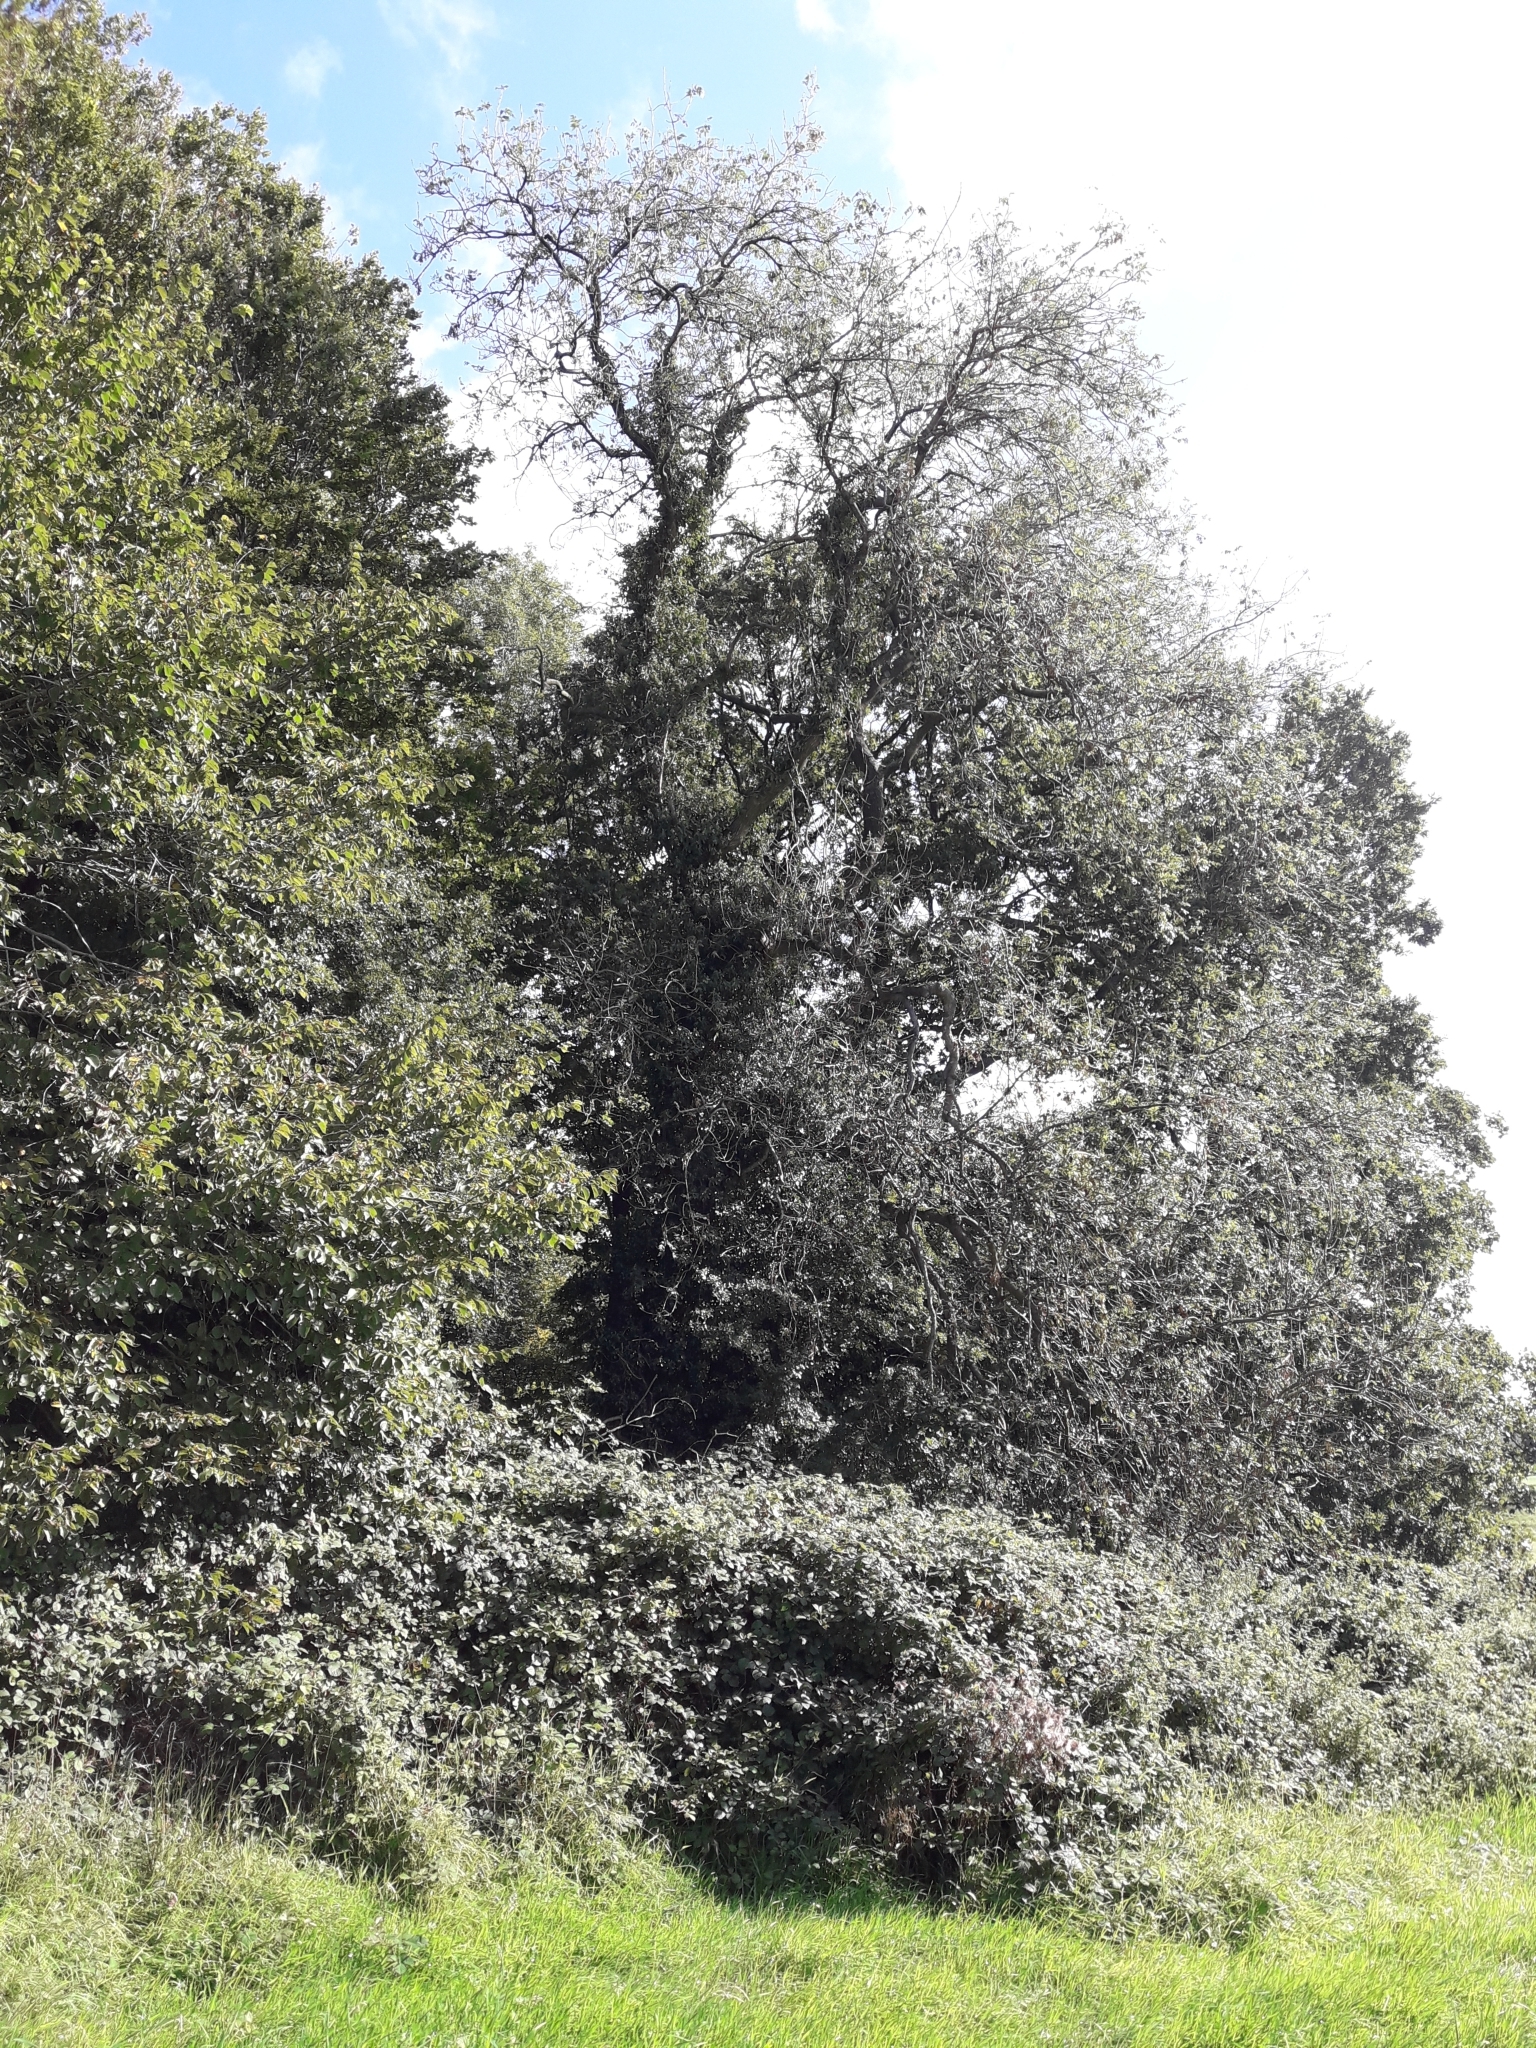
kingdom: Plantae
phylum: Tracheophyta
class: Magnoliopsida
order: Lamiales
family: Oleaceae
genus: Fraxinus
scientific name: Fraxinus excelsior
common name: European ash
